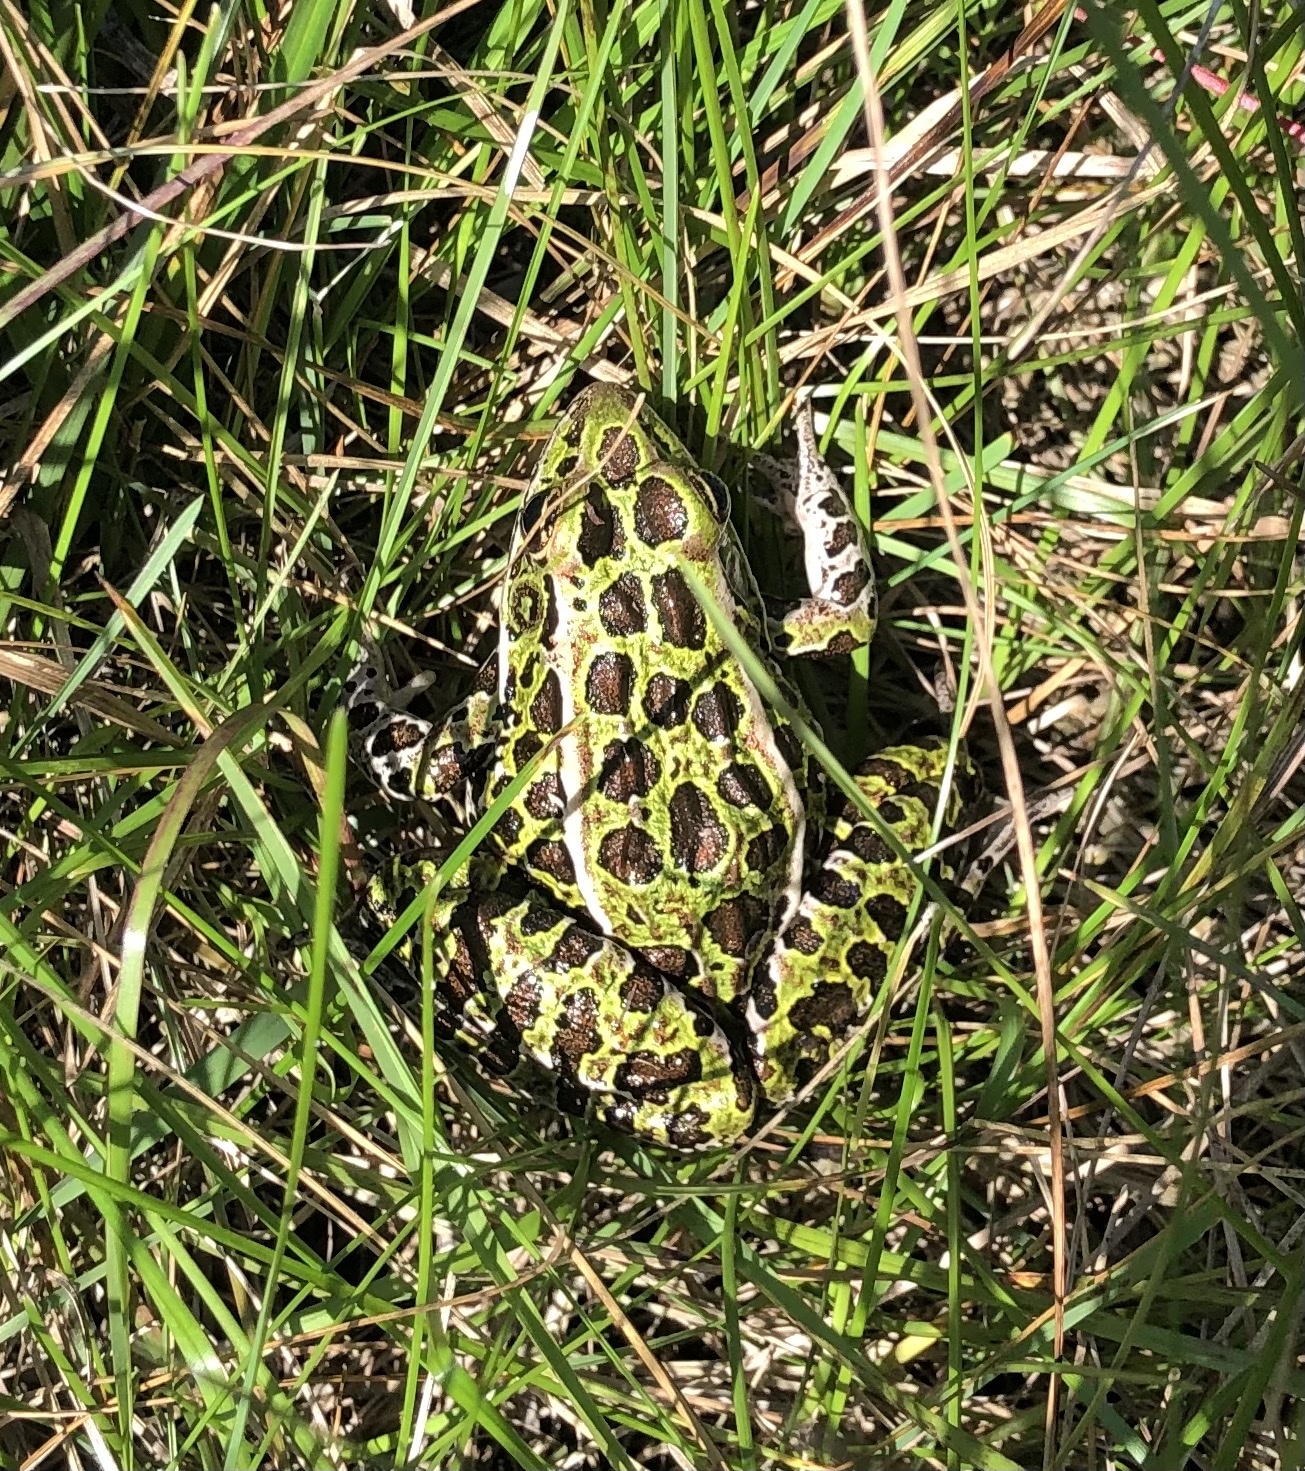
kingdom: Animalia
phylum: Chordata
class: Amphibia
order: Anura
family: Ranidae
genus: Lithobates
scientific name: Lithobates pipiens
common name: Northern leopard frog
